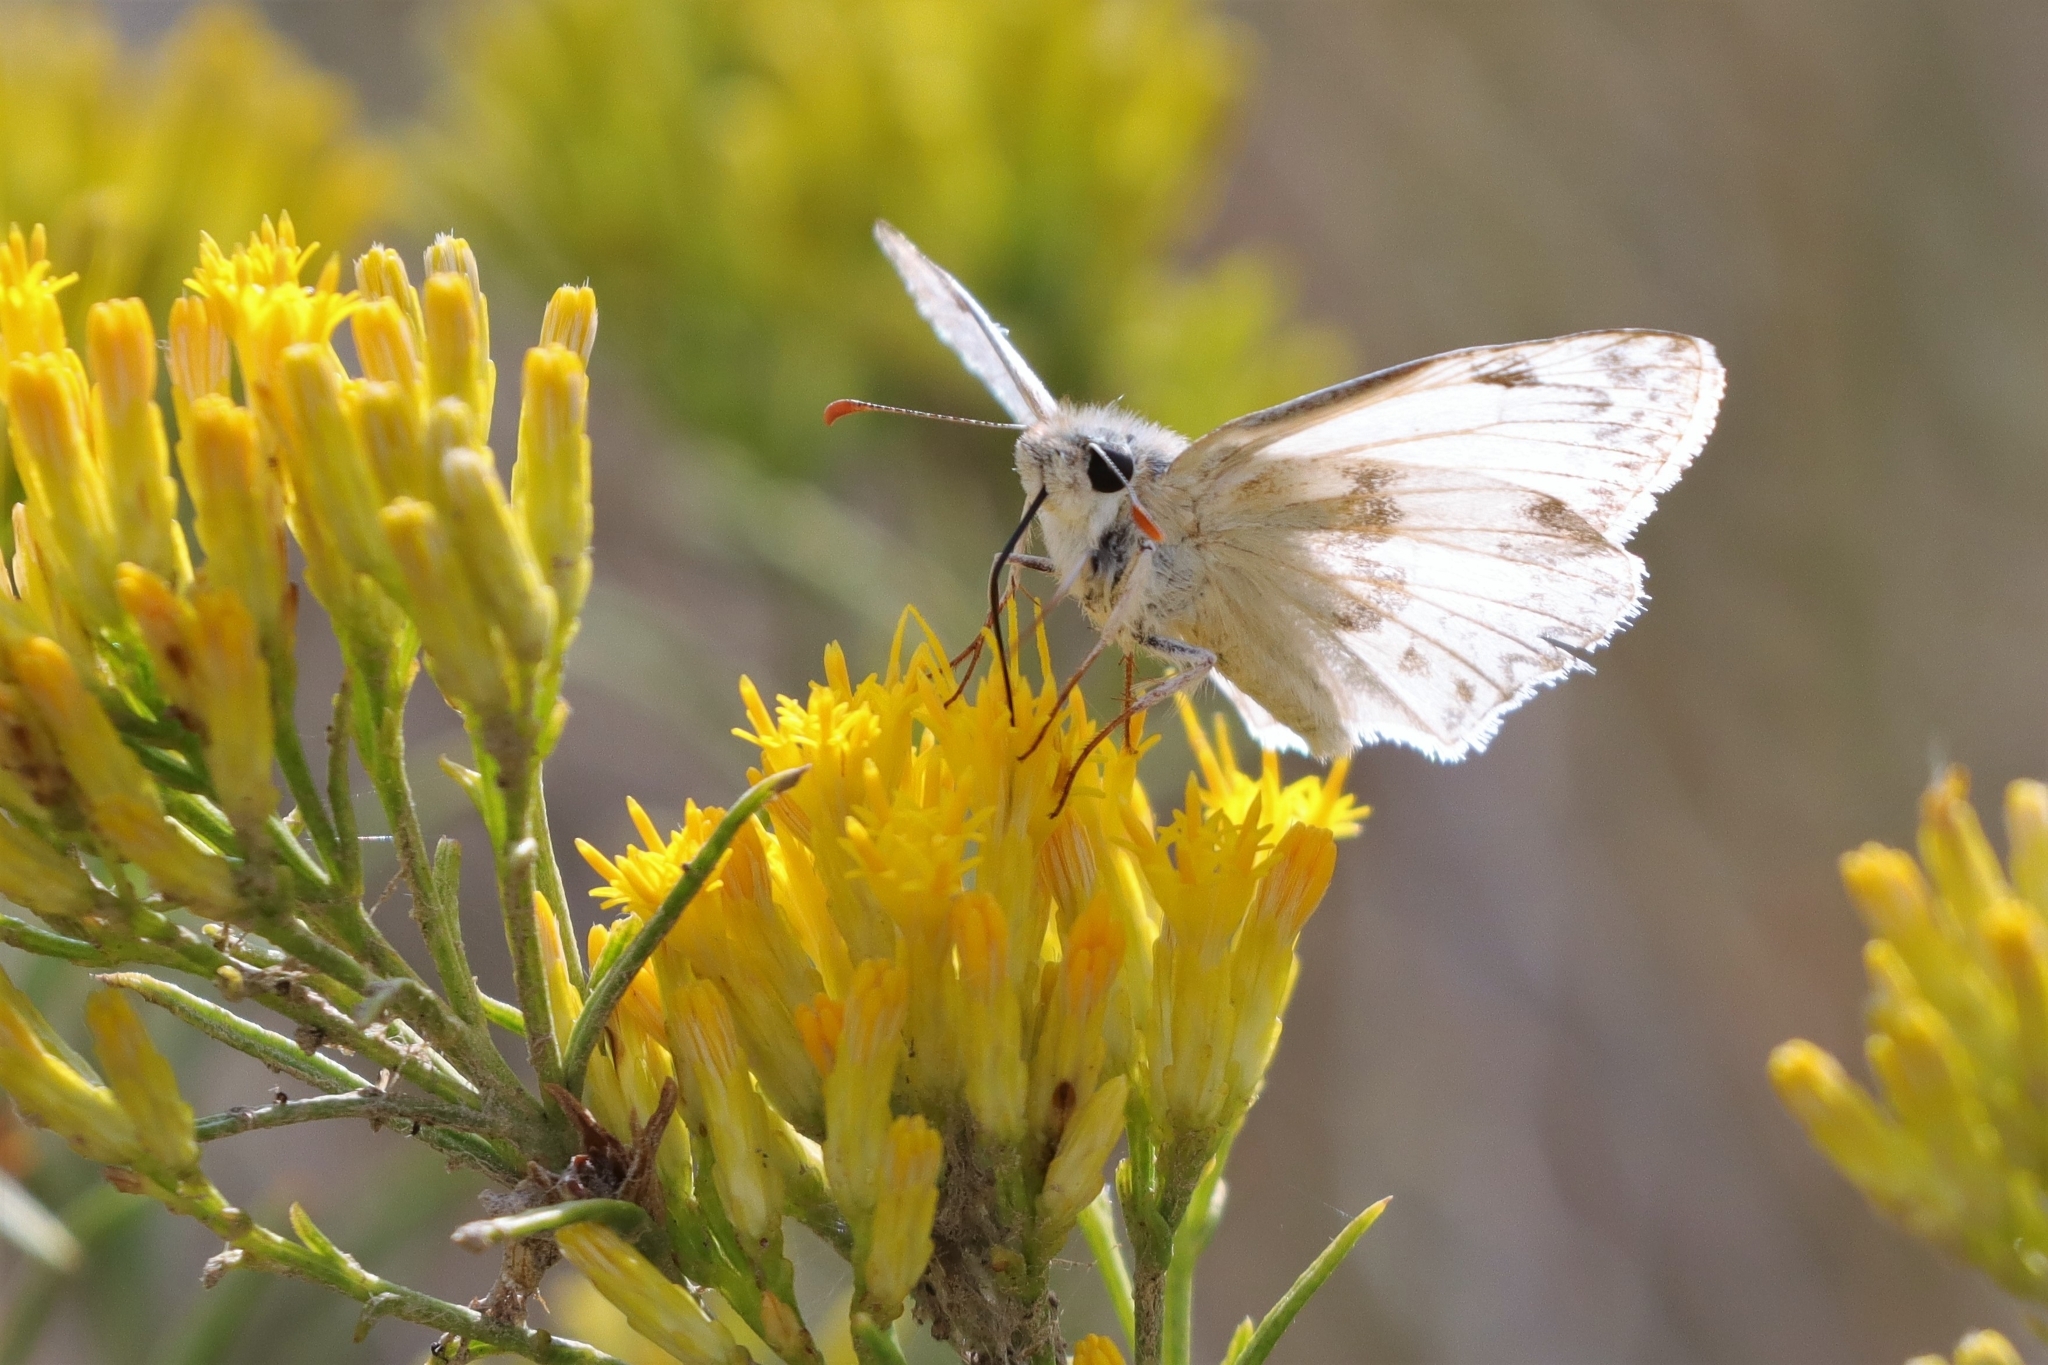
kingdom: Animalia
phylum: Arthropoda
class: Insecta
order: Lepidoptera
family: Hesperiidae
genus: Heliopetes
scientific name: Heliopetes ericetorum
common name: Northern white-skipper
